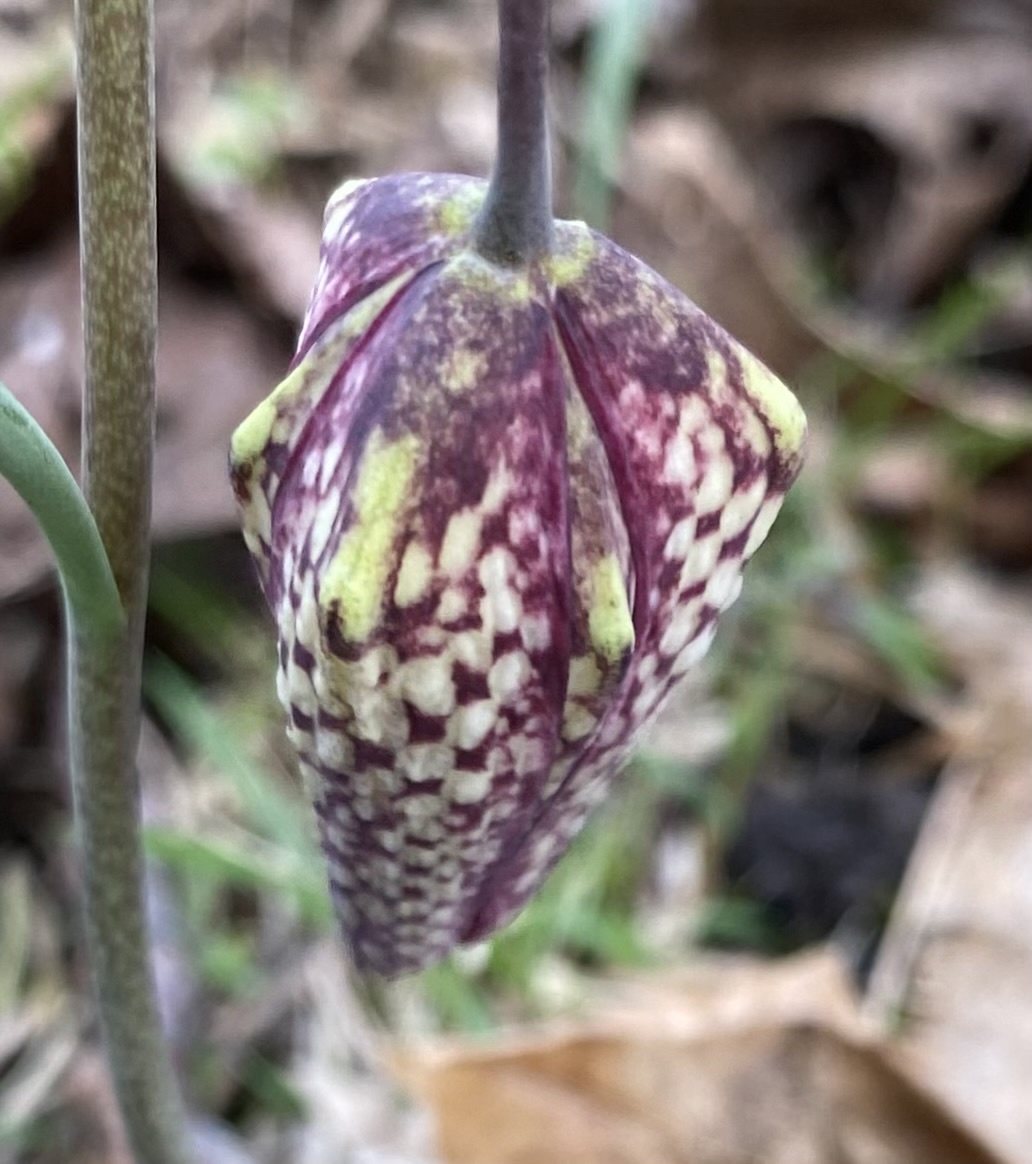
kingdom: Plantae
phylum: Tracheophyta
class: Liliopsida
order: Liliales
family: Liliaceae
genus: Fritillaria
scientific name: Fritillaria meleagris
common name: Fritillary
